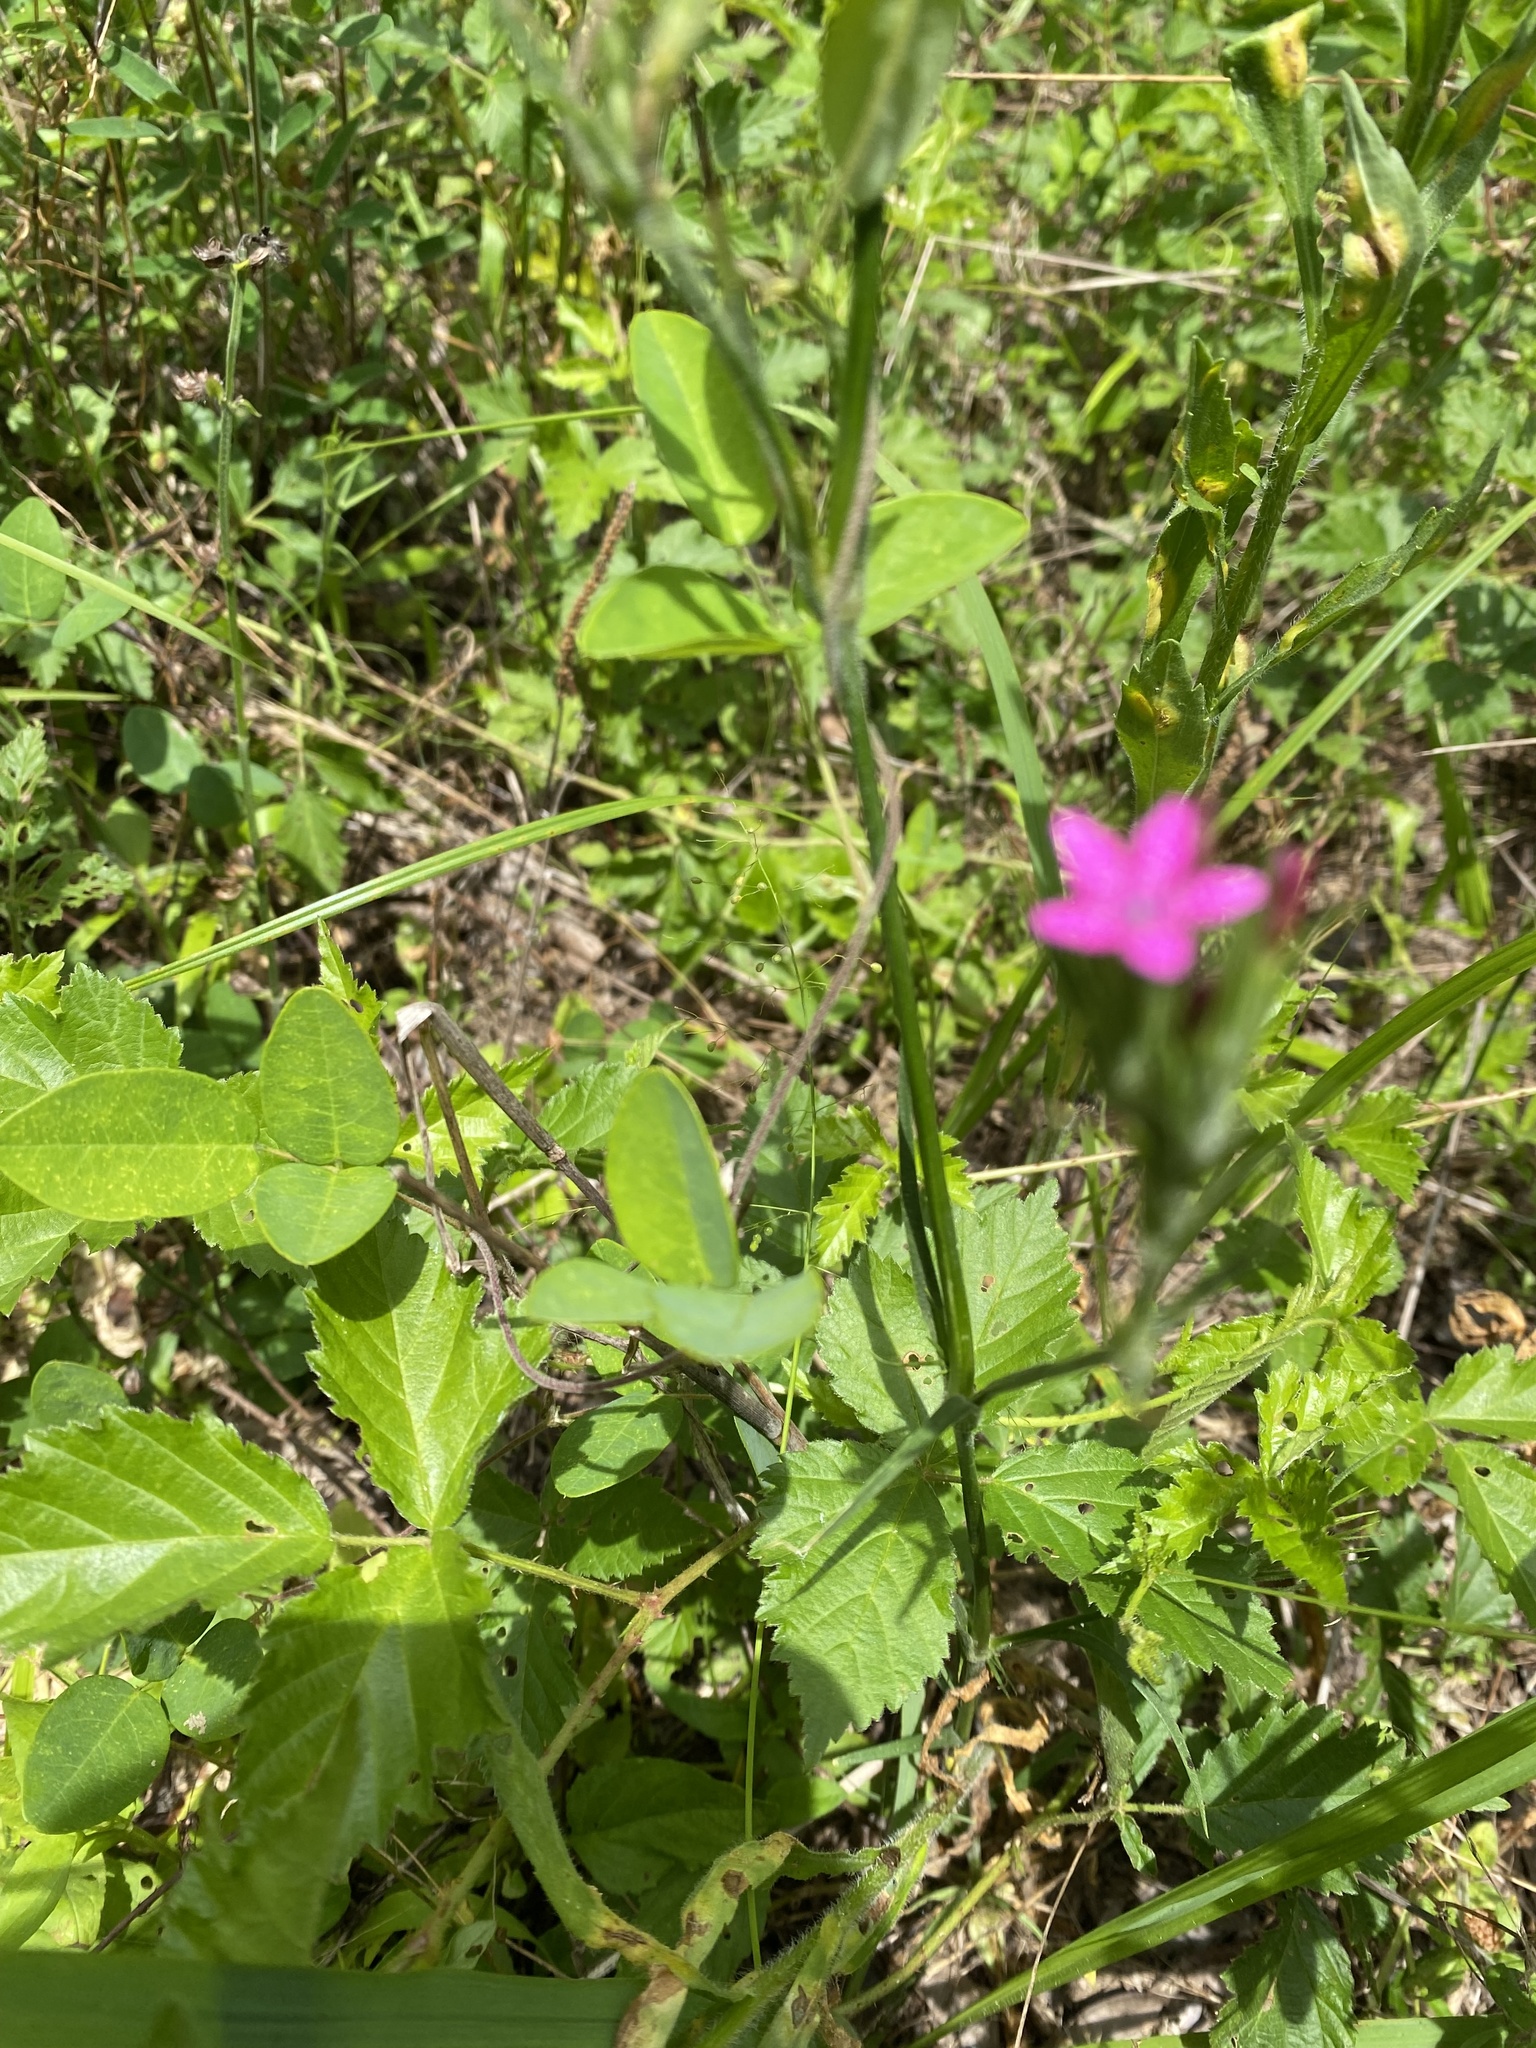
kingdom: Plantae
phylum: Tracheophyta
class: Magnoliopsida
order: Caryophyllales
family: Caryophyllaceae
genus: Dianthus
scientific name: Dianthus armeria
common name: Deptford pink
